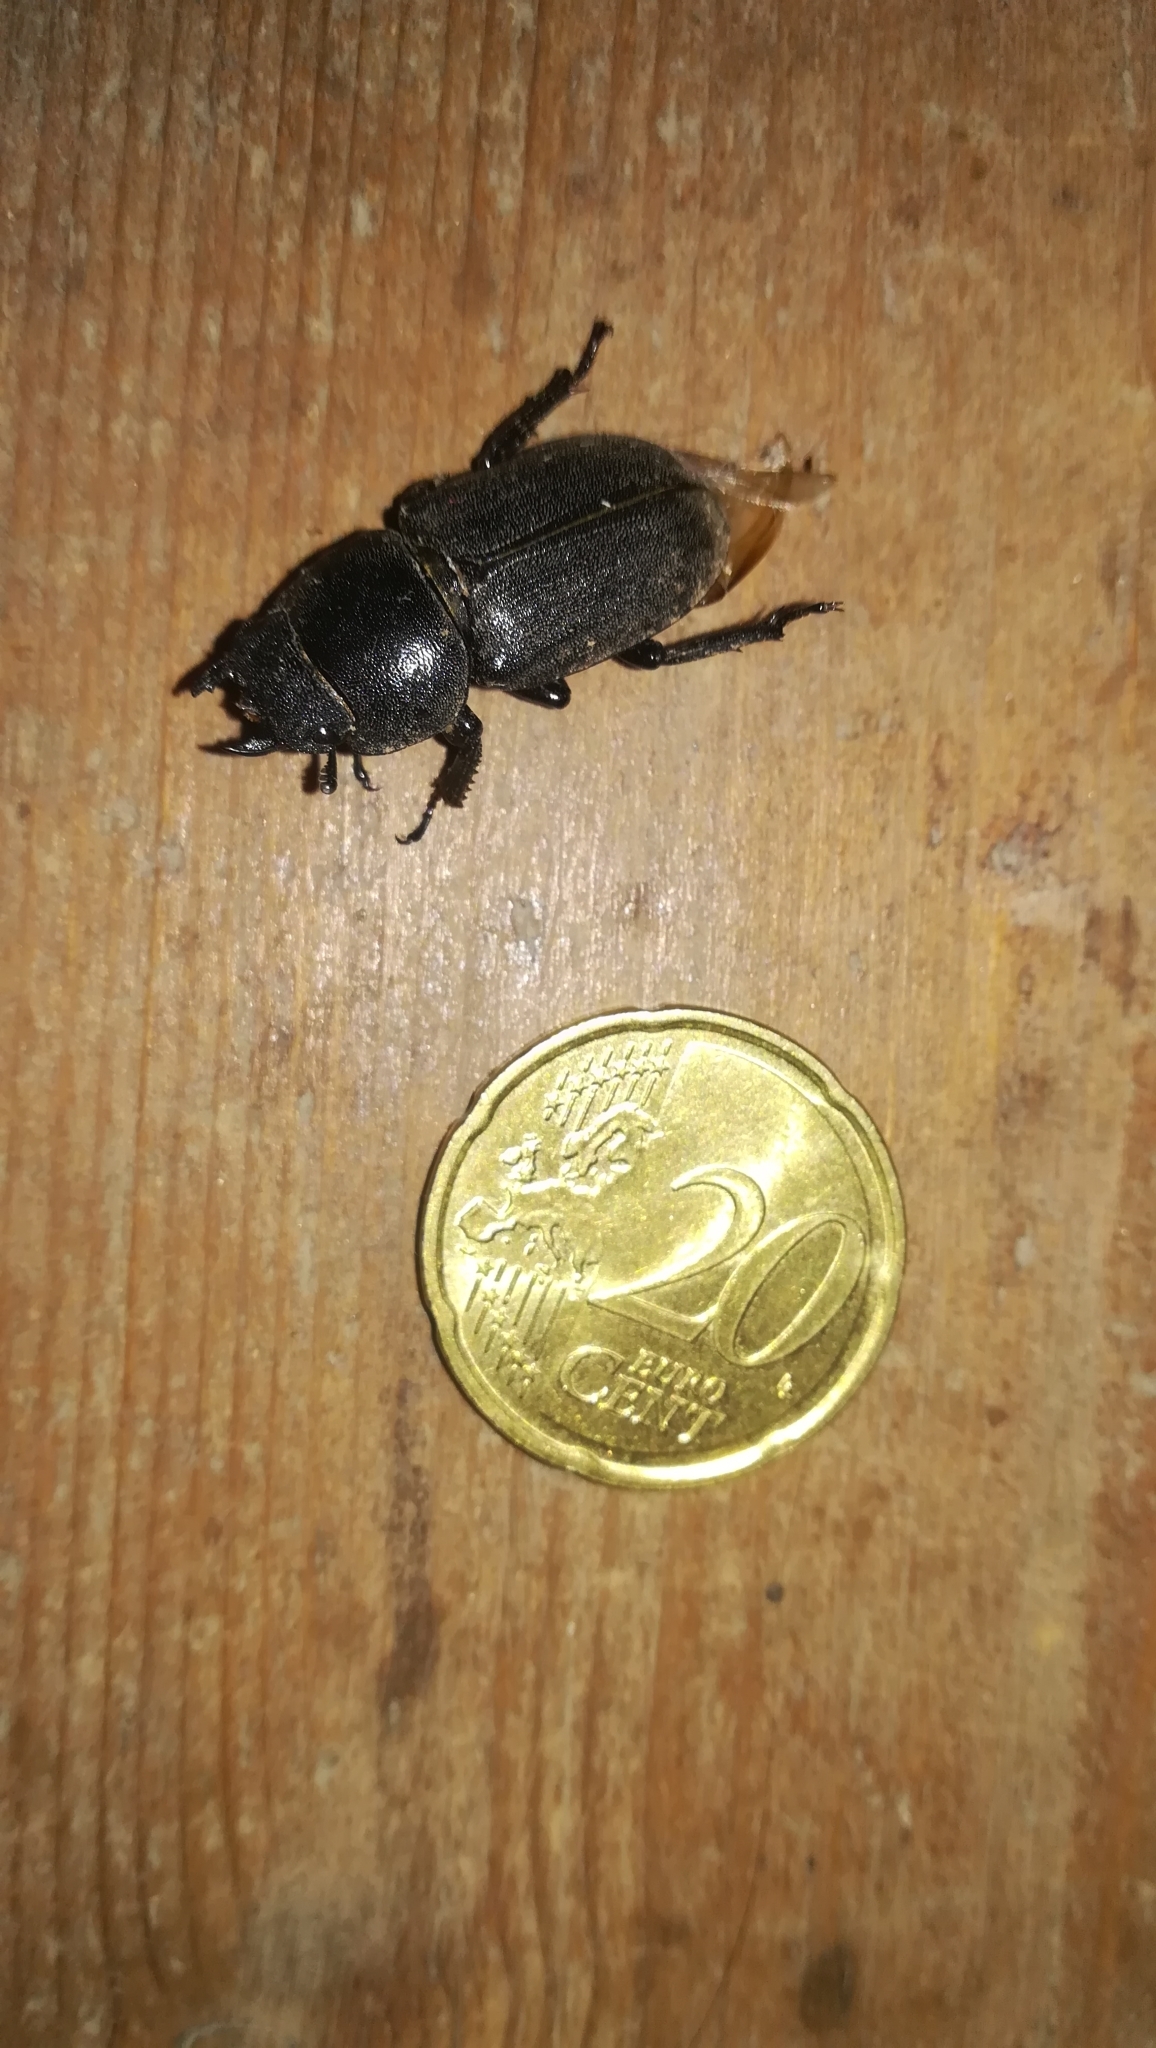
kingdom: Animalia
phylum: Arthropoda
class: Insecta
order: Coleoptera
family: Lucanidae
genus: Dorcus
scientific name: Dorcus parallelipipedus
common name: Lesser stag beetle
